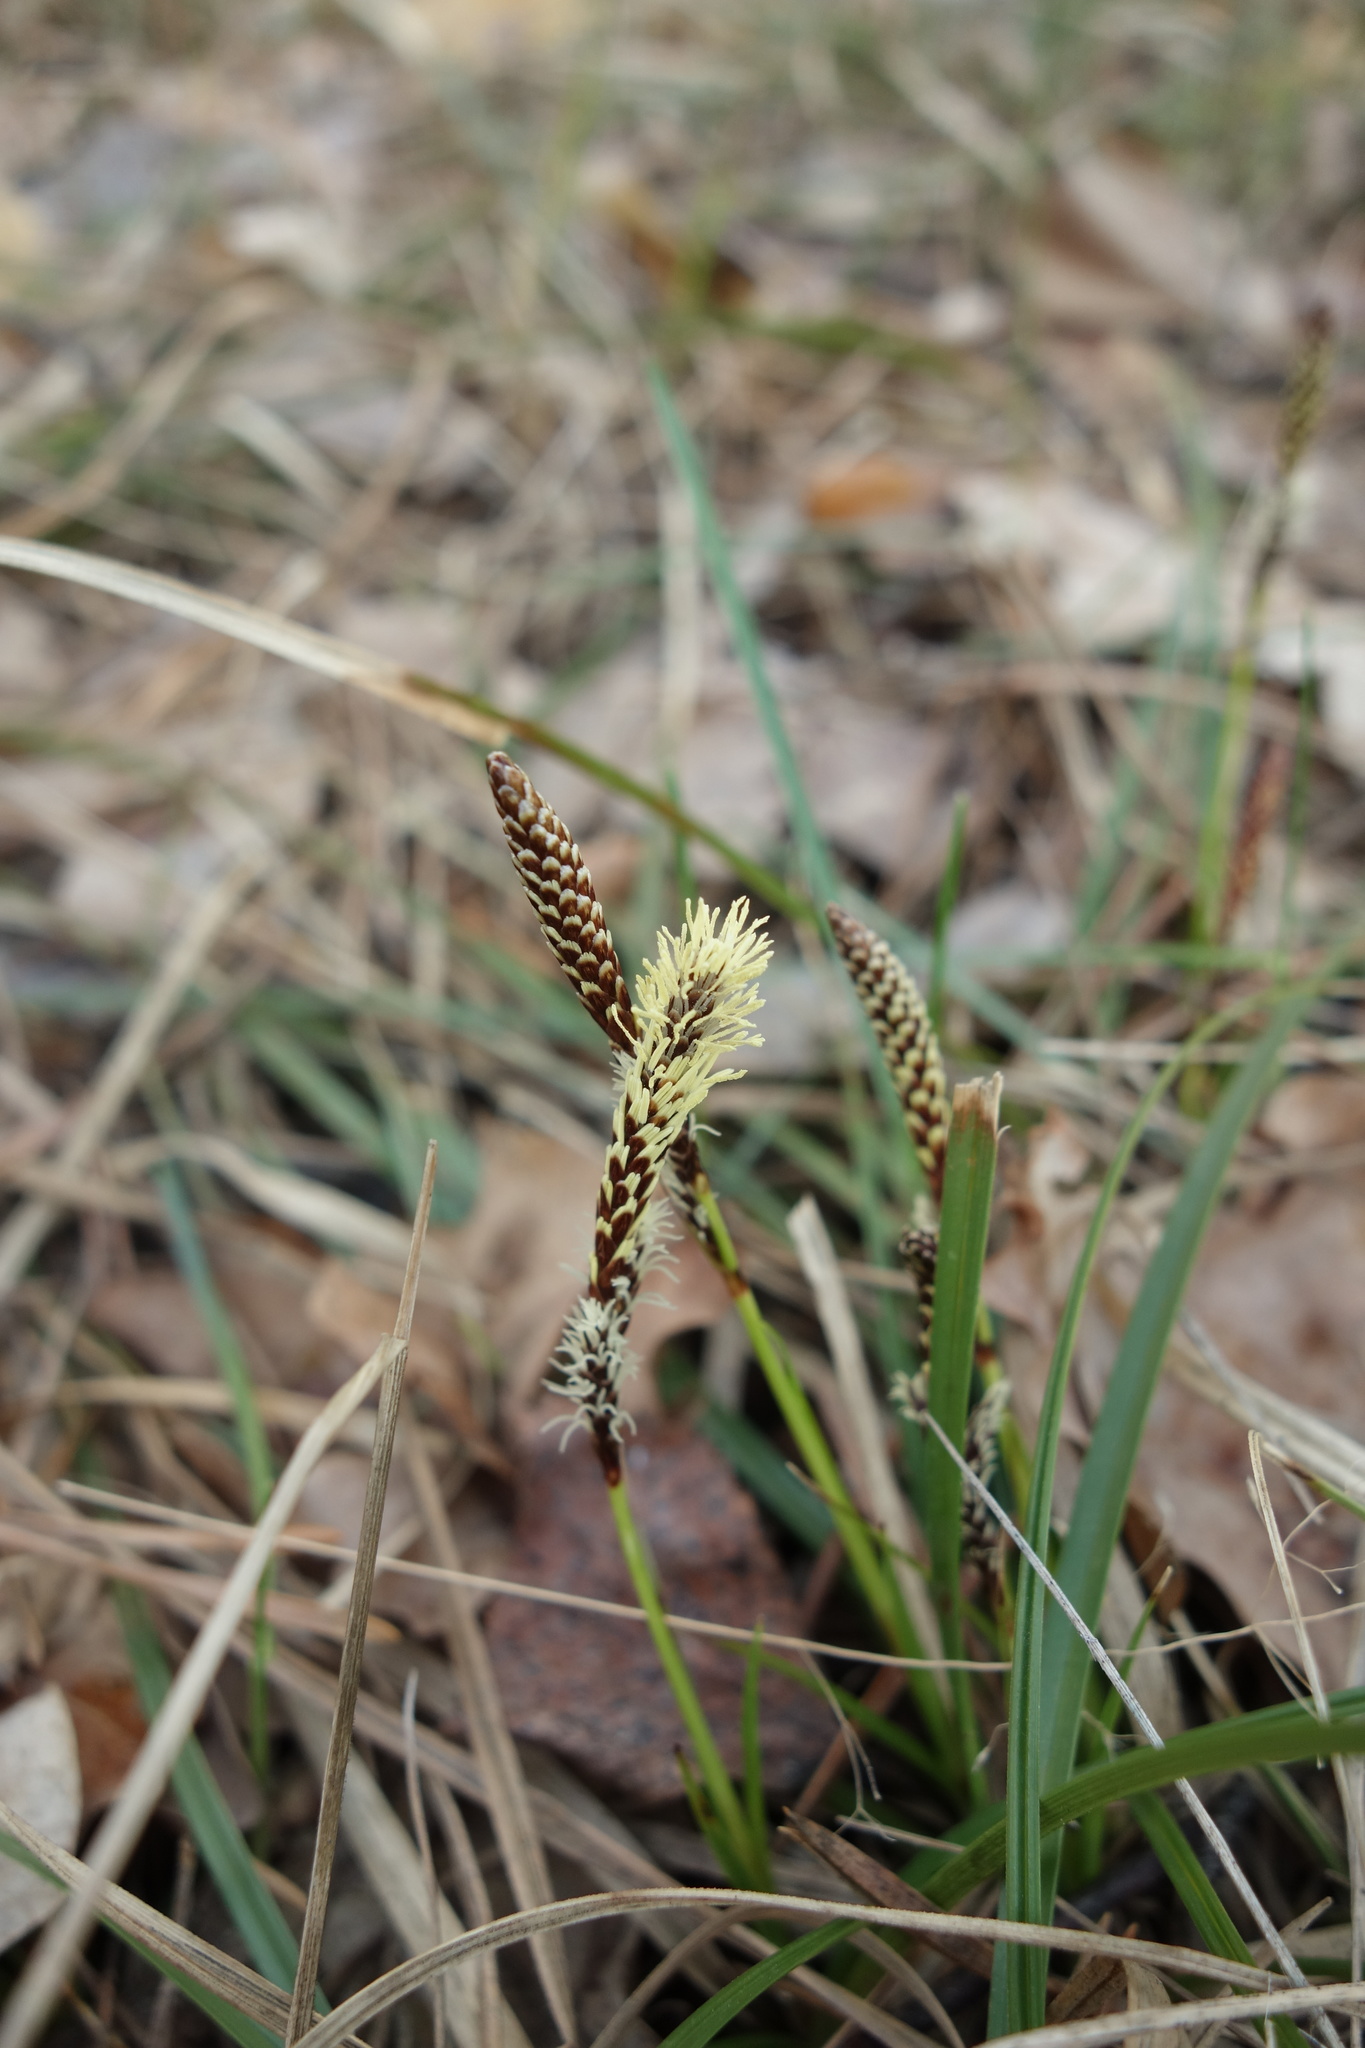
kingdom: Plantae
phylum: Tracheophyta
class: Liliopsida
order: Poales
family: Cyperaceae
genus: Carex
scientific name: Carex pilosa
